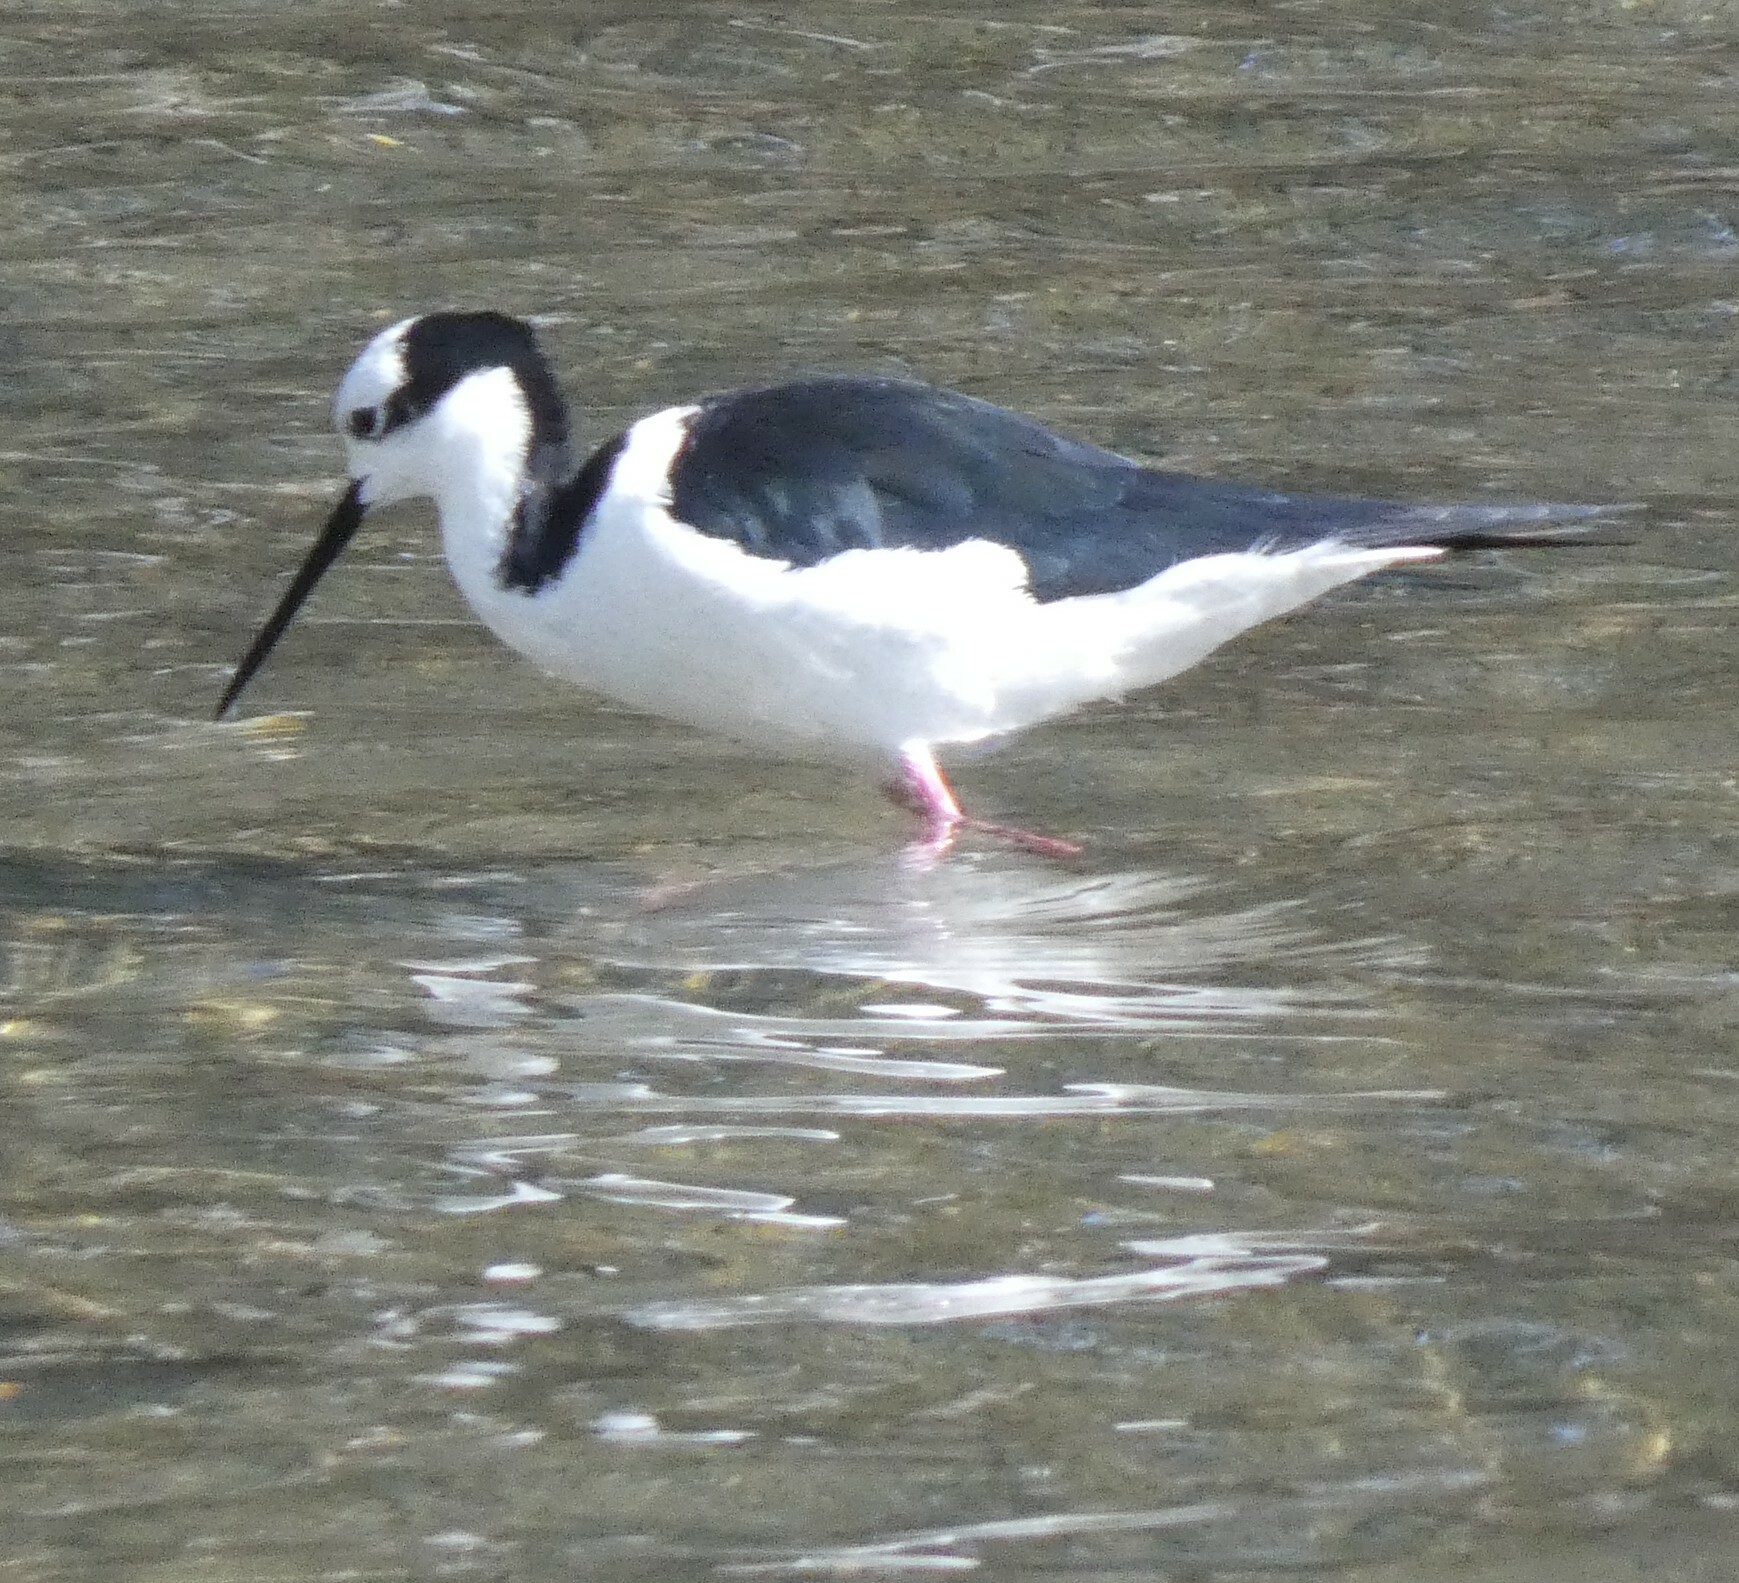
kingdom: Animalia
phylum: Chordata
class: Aves
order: Charadriiformes
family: Recurvirostridae
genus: Himantopus
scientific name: Himantopus mexicanus
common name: Black-necked stilt
